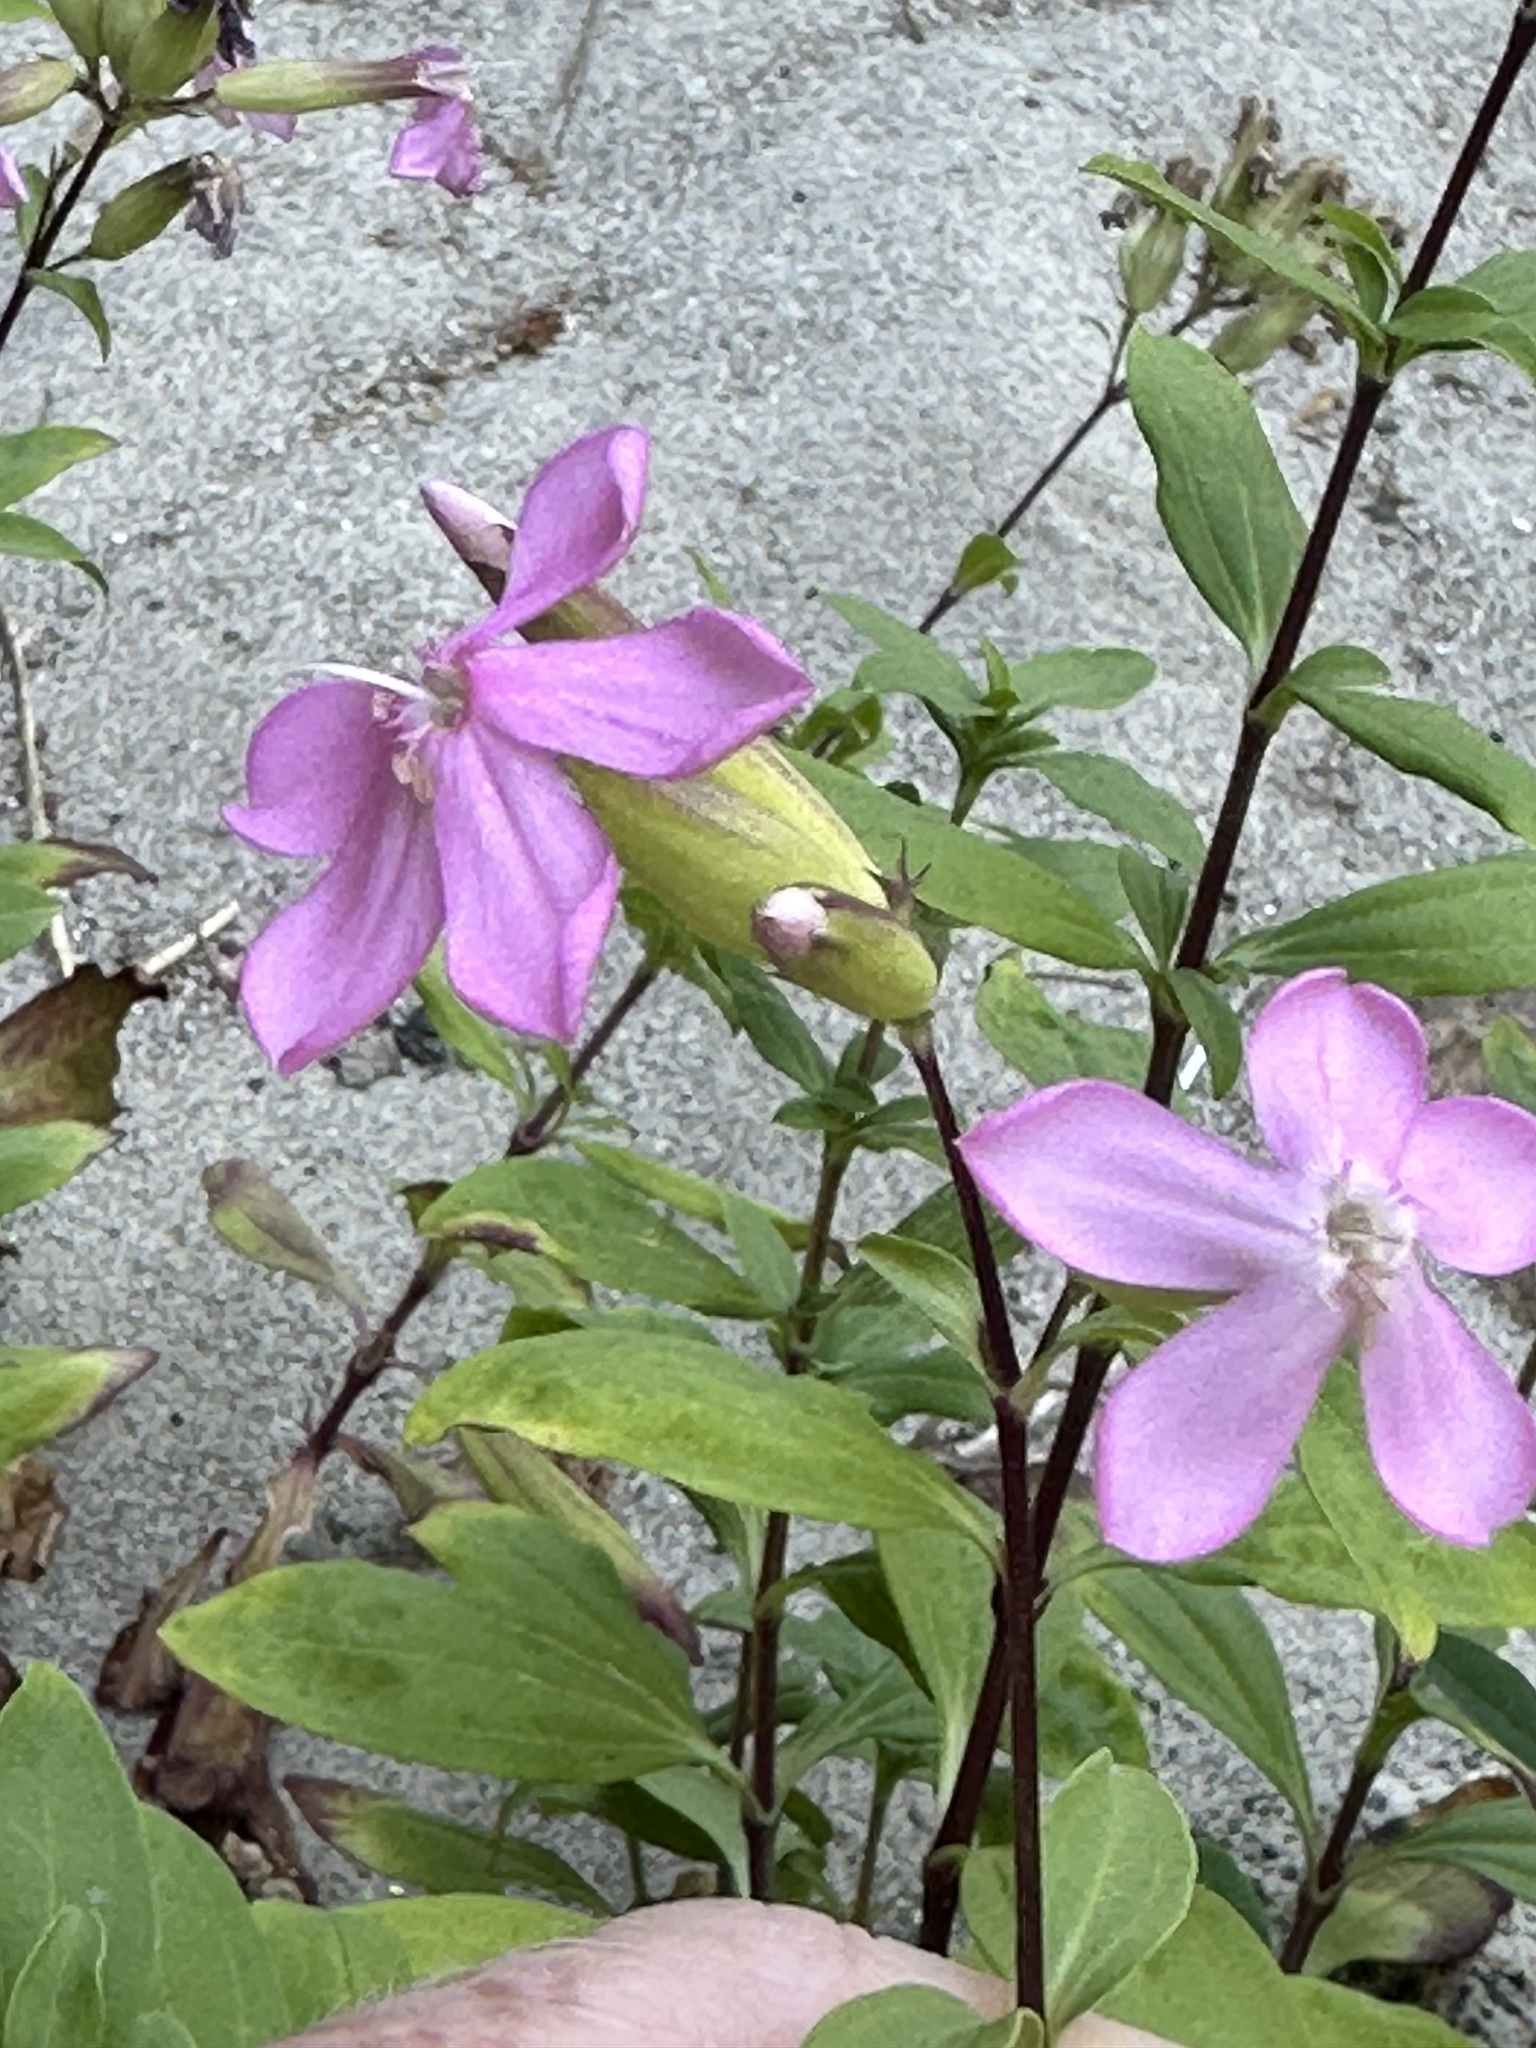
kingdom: Plantae
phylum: Tracheophyta
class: Magnoliopsida
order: Caryophyllales
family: Caryophyllaceae
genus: Saponaria
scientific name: Saponaria officinalis
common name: Soapwort
